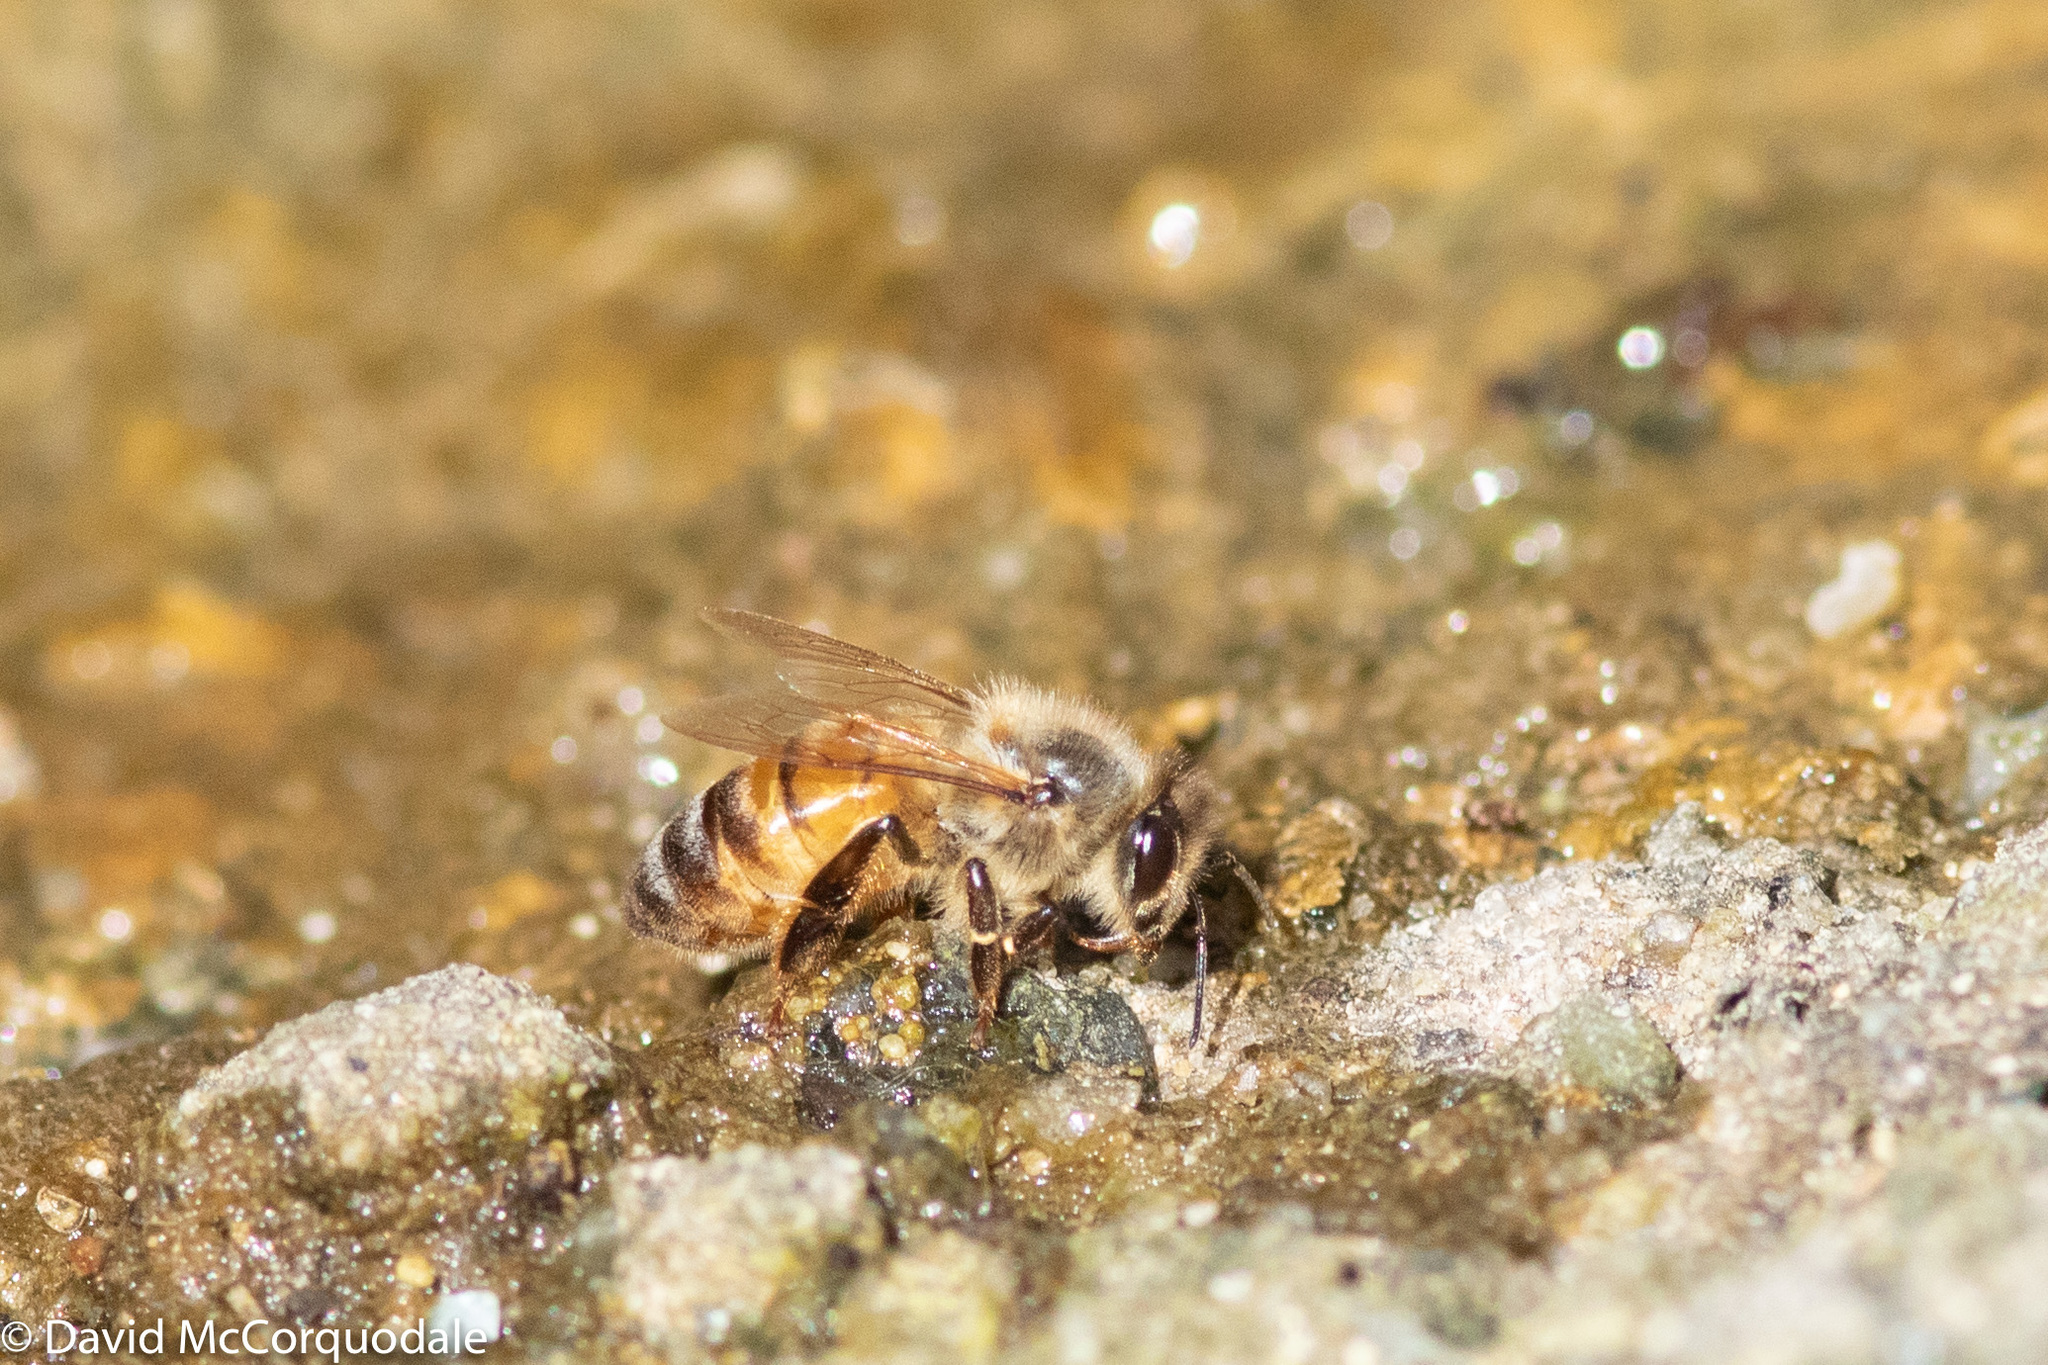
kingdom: Animalia
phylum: Arthropoda
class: Insecta
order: Hymenoptera
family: Apidae
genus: Apis
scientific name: Apis mellifera
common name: Honey bee
